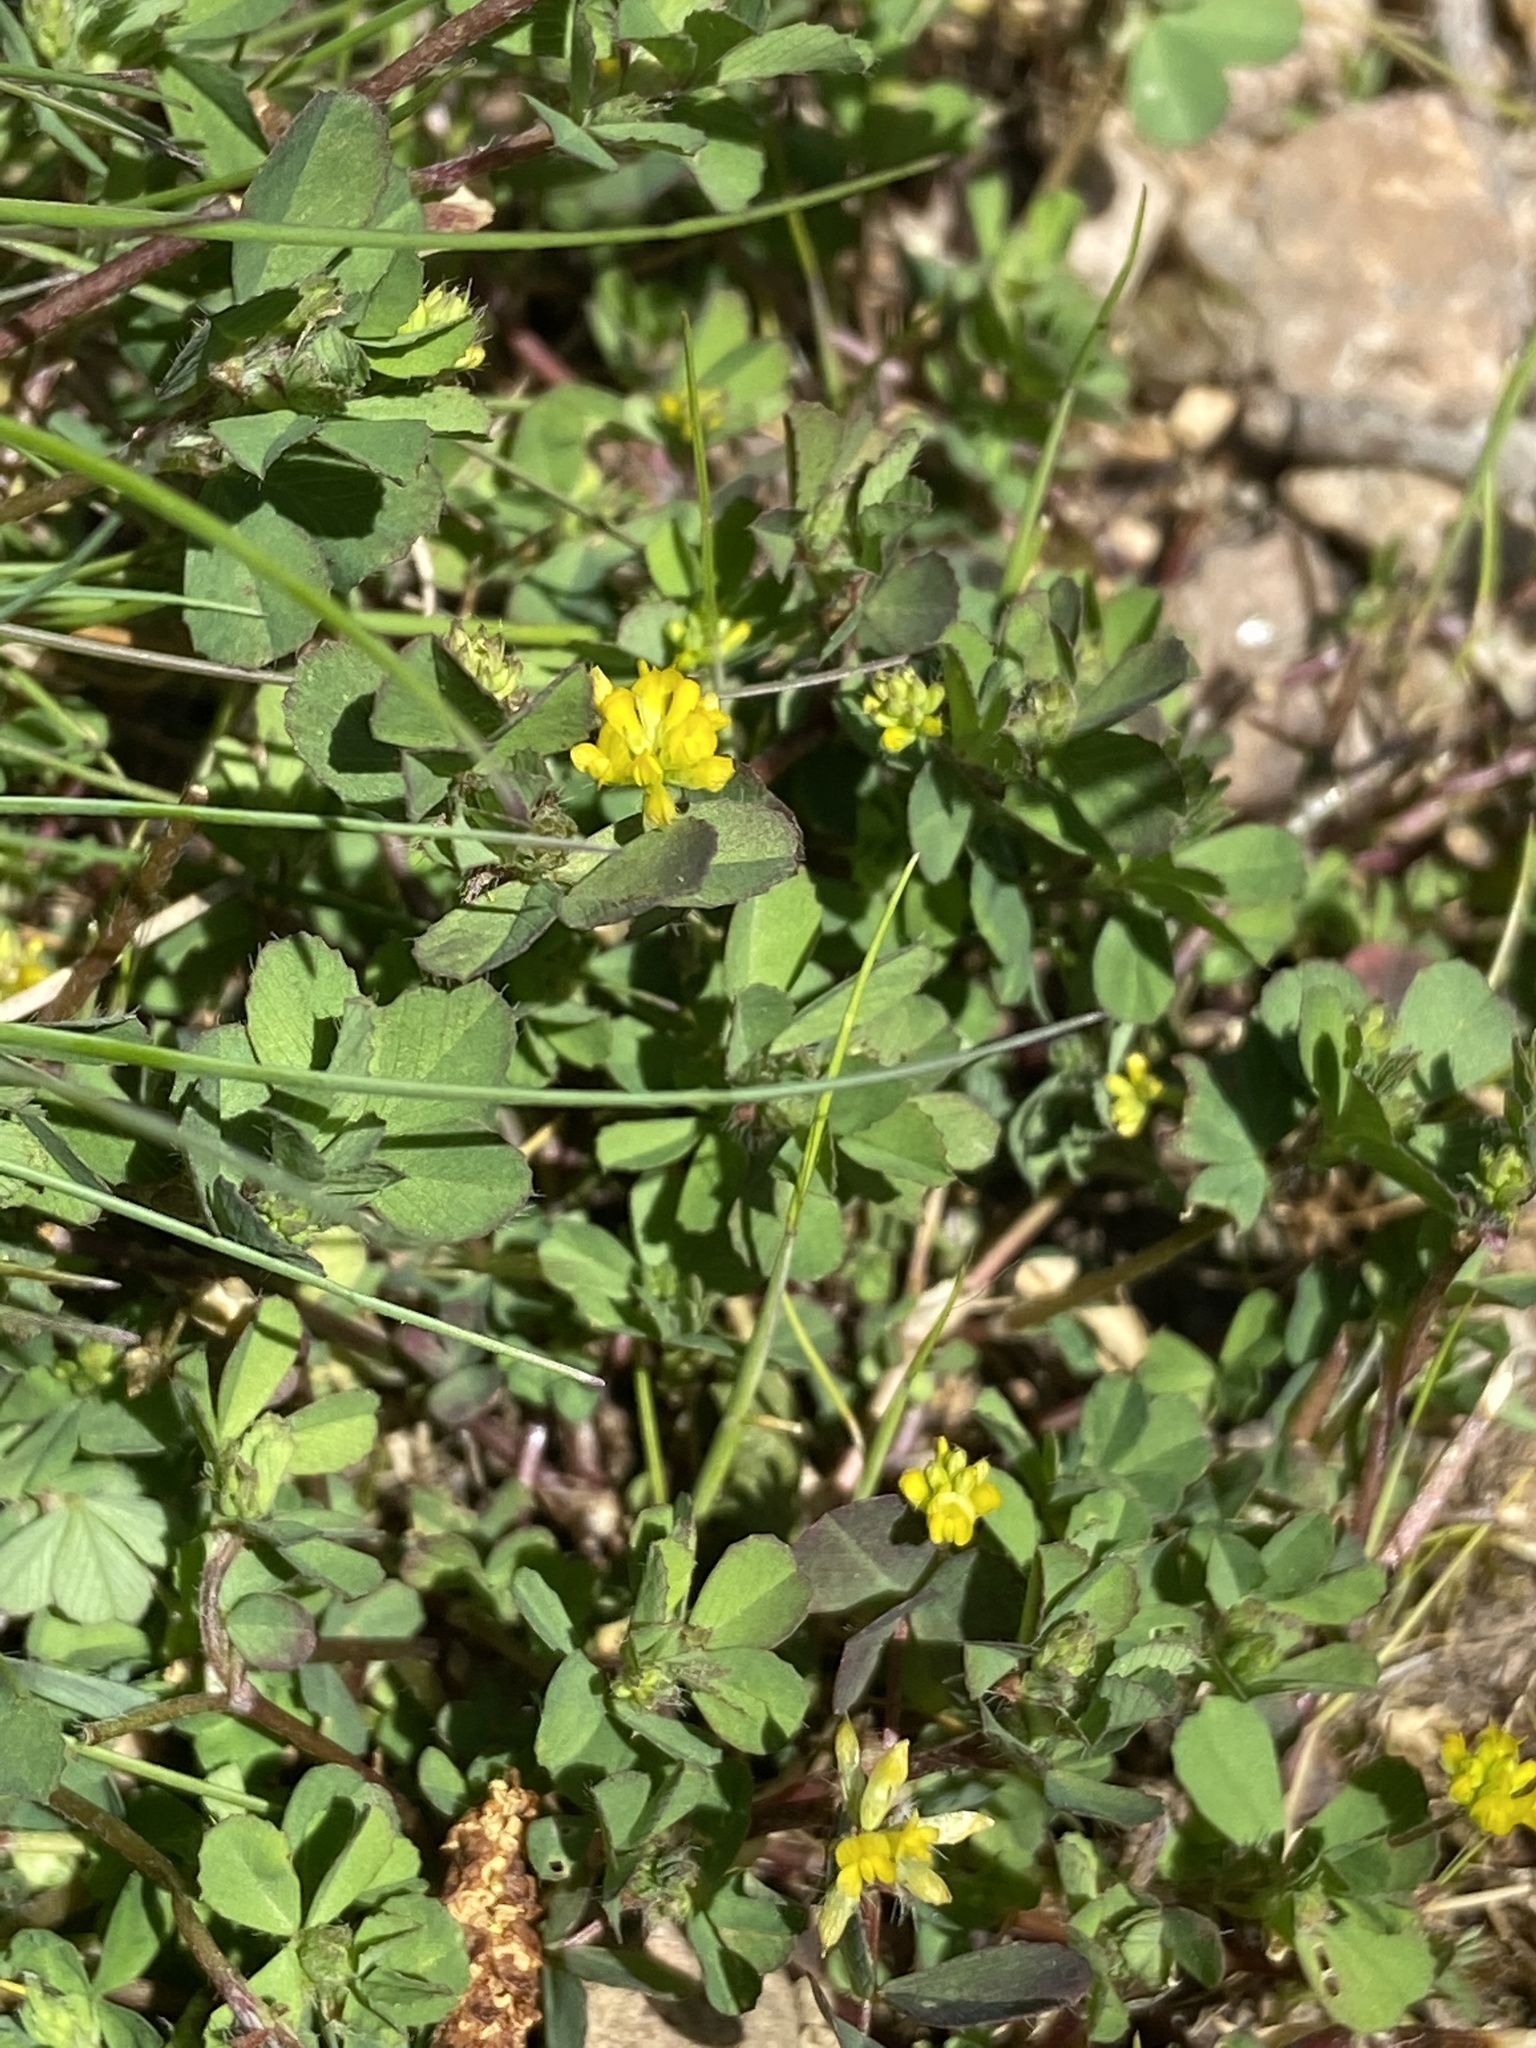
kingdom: Plantae
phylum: Tracheophyta
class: Magnoliopsida
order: Fabales
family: Fabaceae
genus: Trifolium
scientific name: Trifolium dubium
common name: Suckling clover
